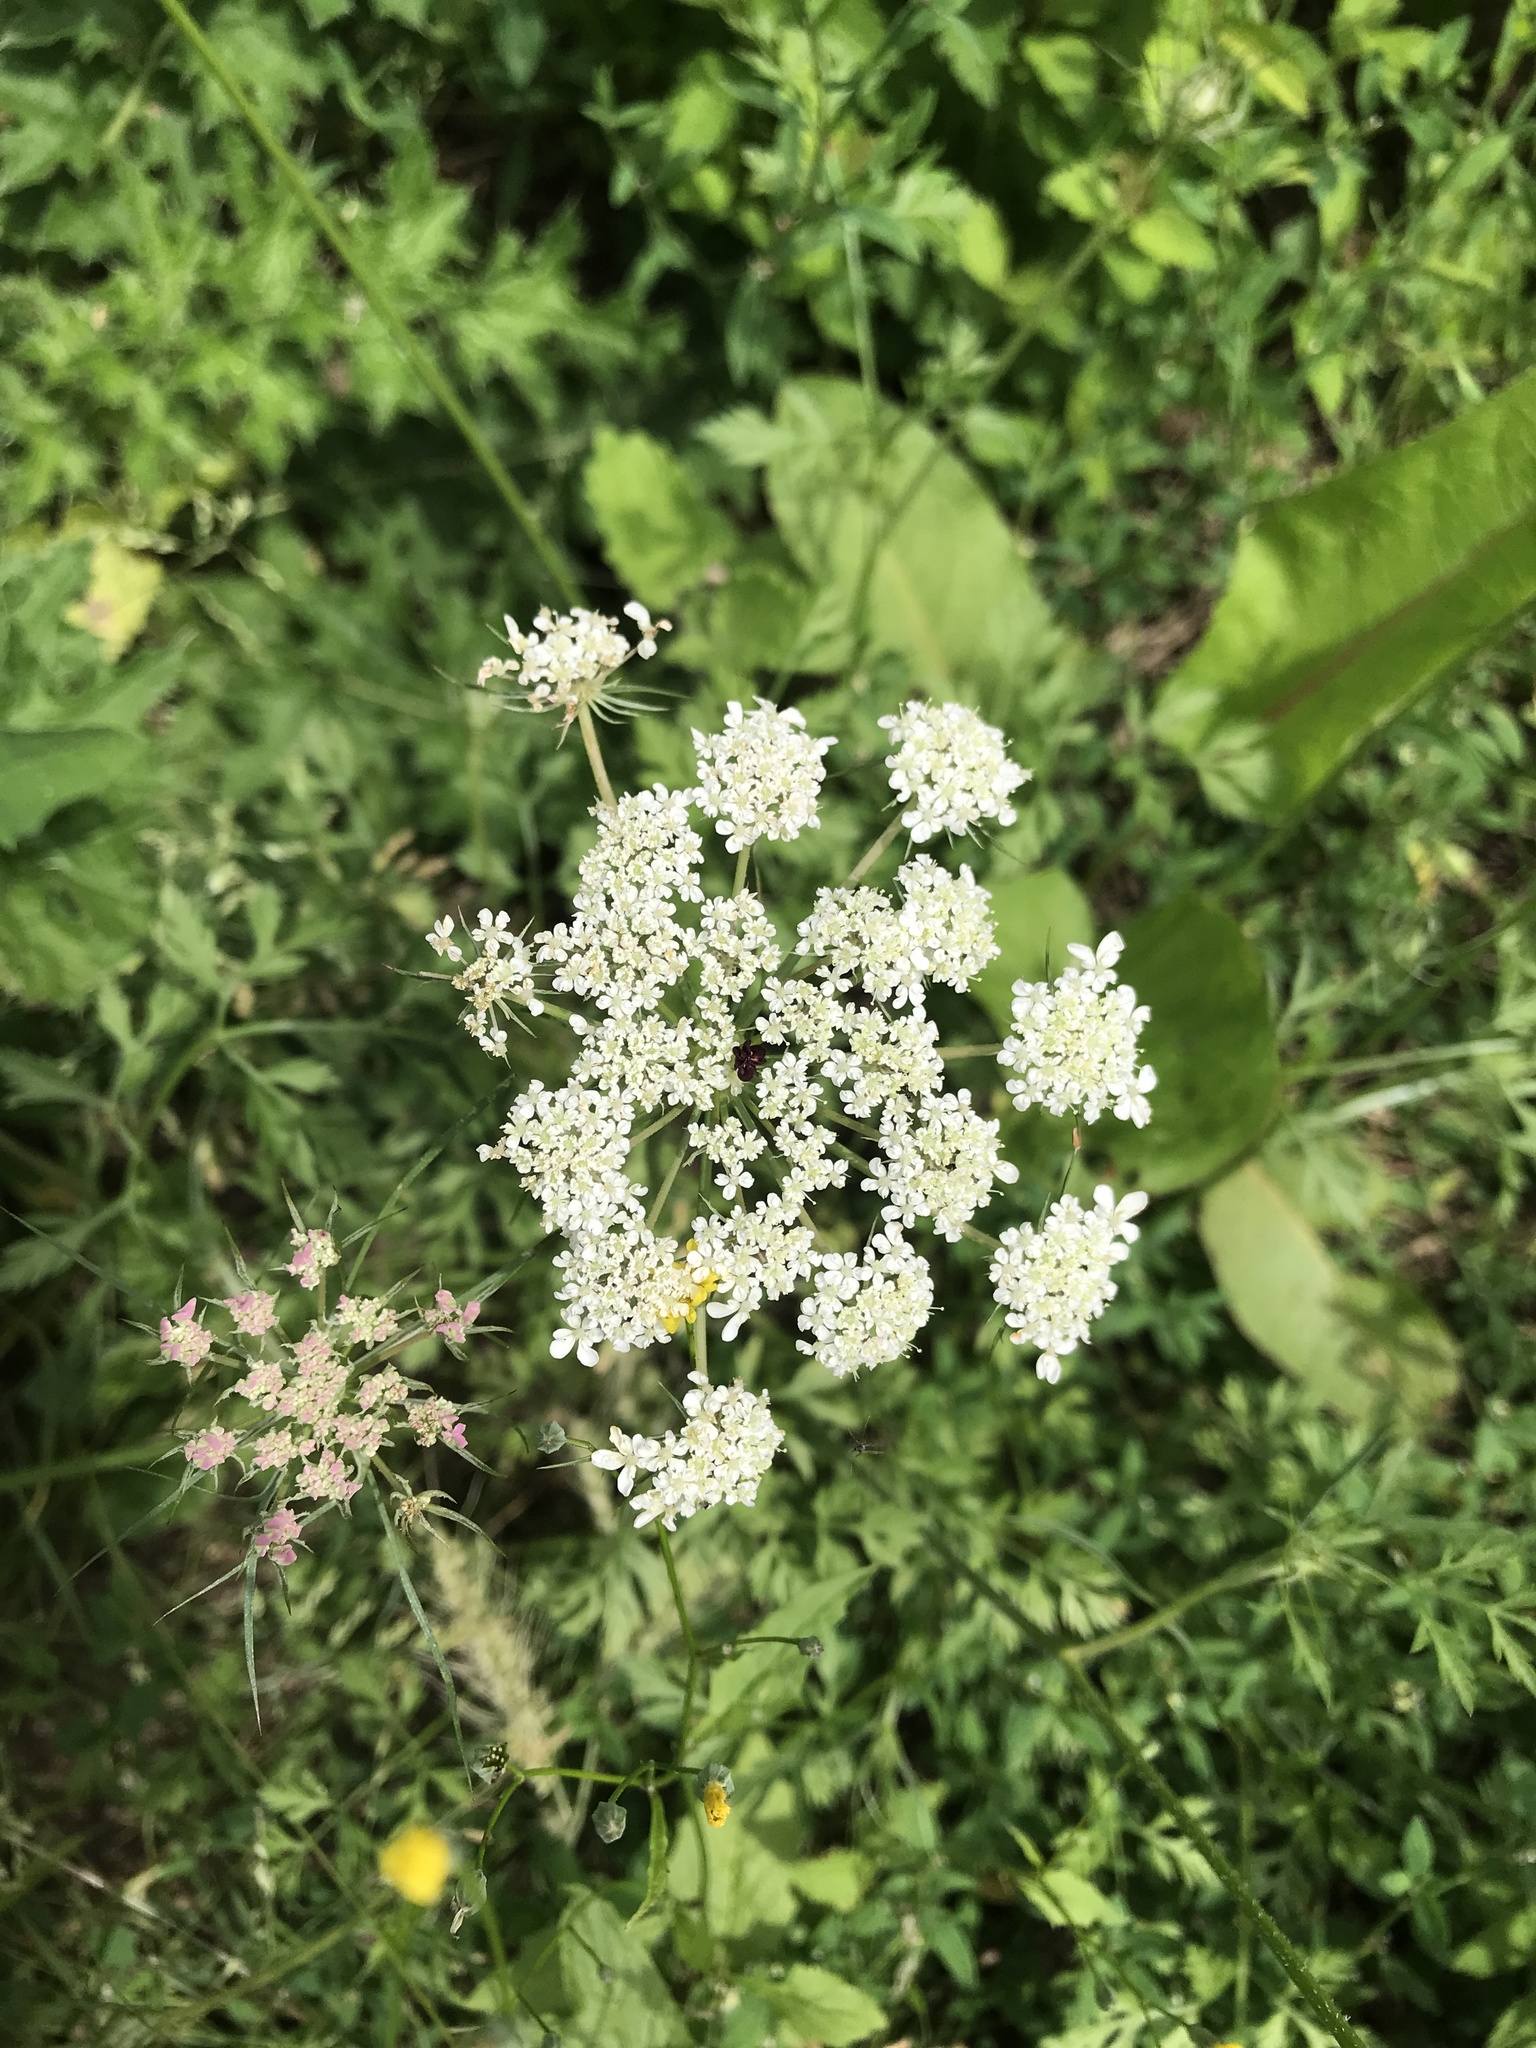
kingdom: Plantae
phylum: Tracheophyta
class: Magnoliopsida
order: Apiales
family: Apiaceae
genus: Daucus
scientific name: Daucus carota
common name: Wild carrot
